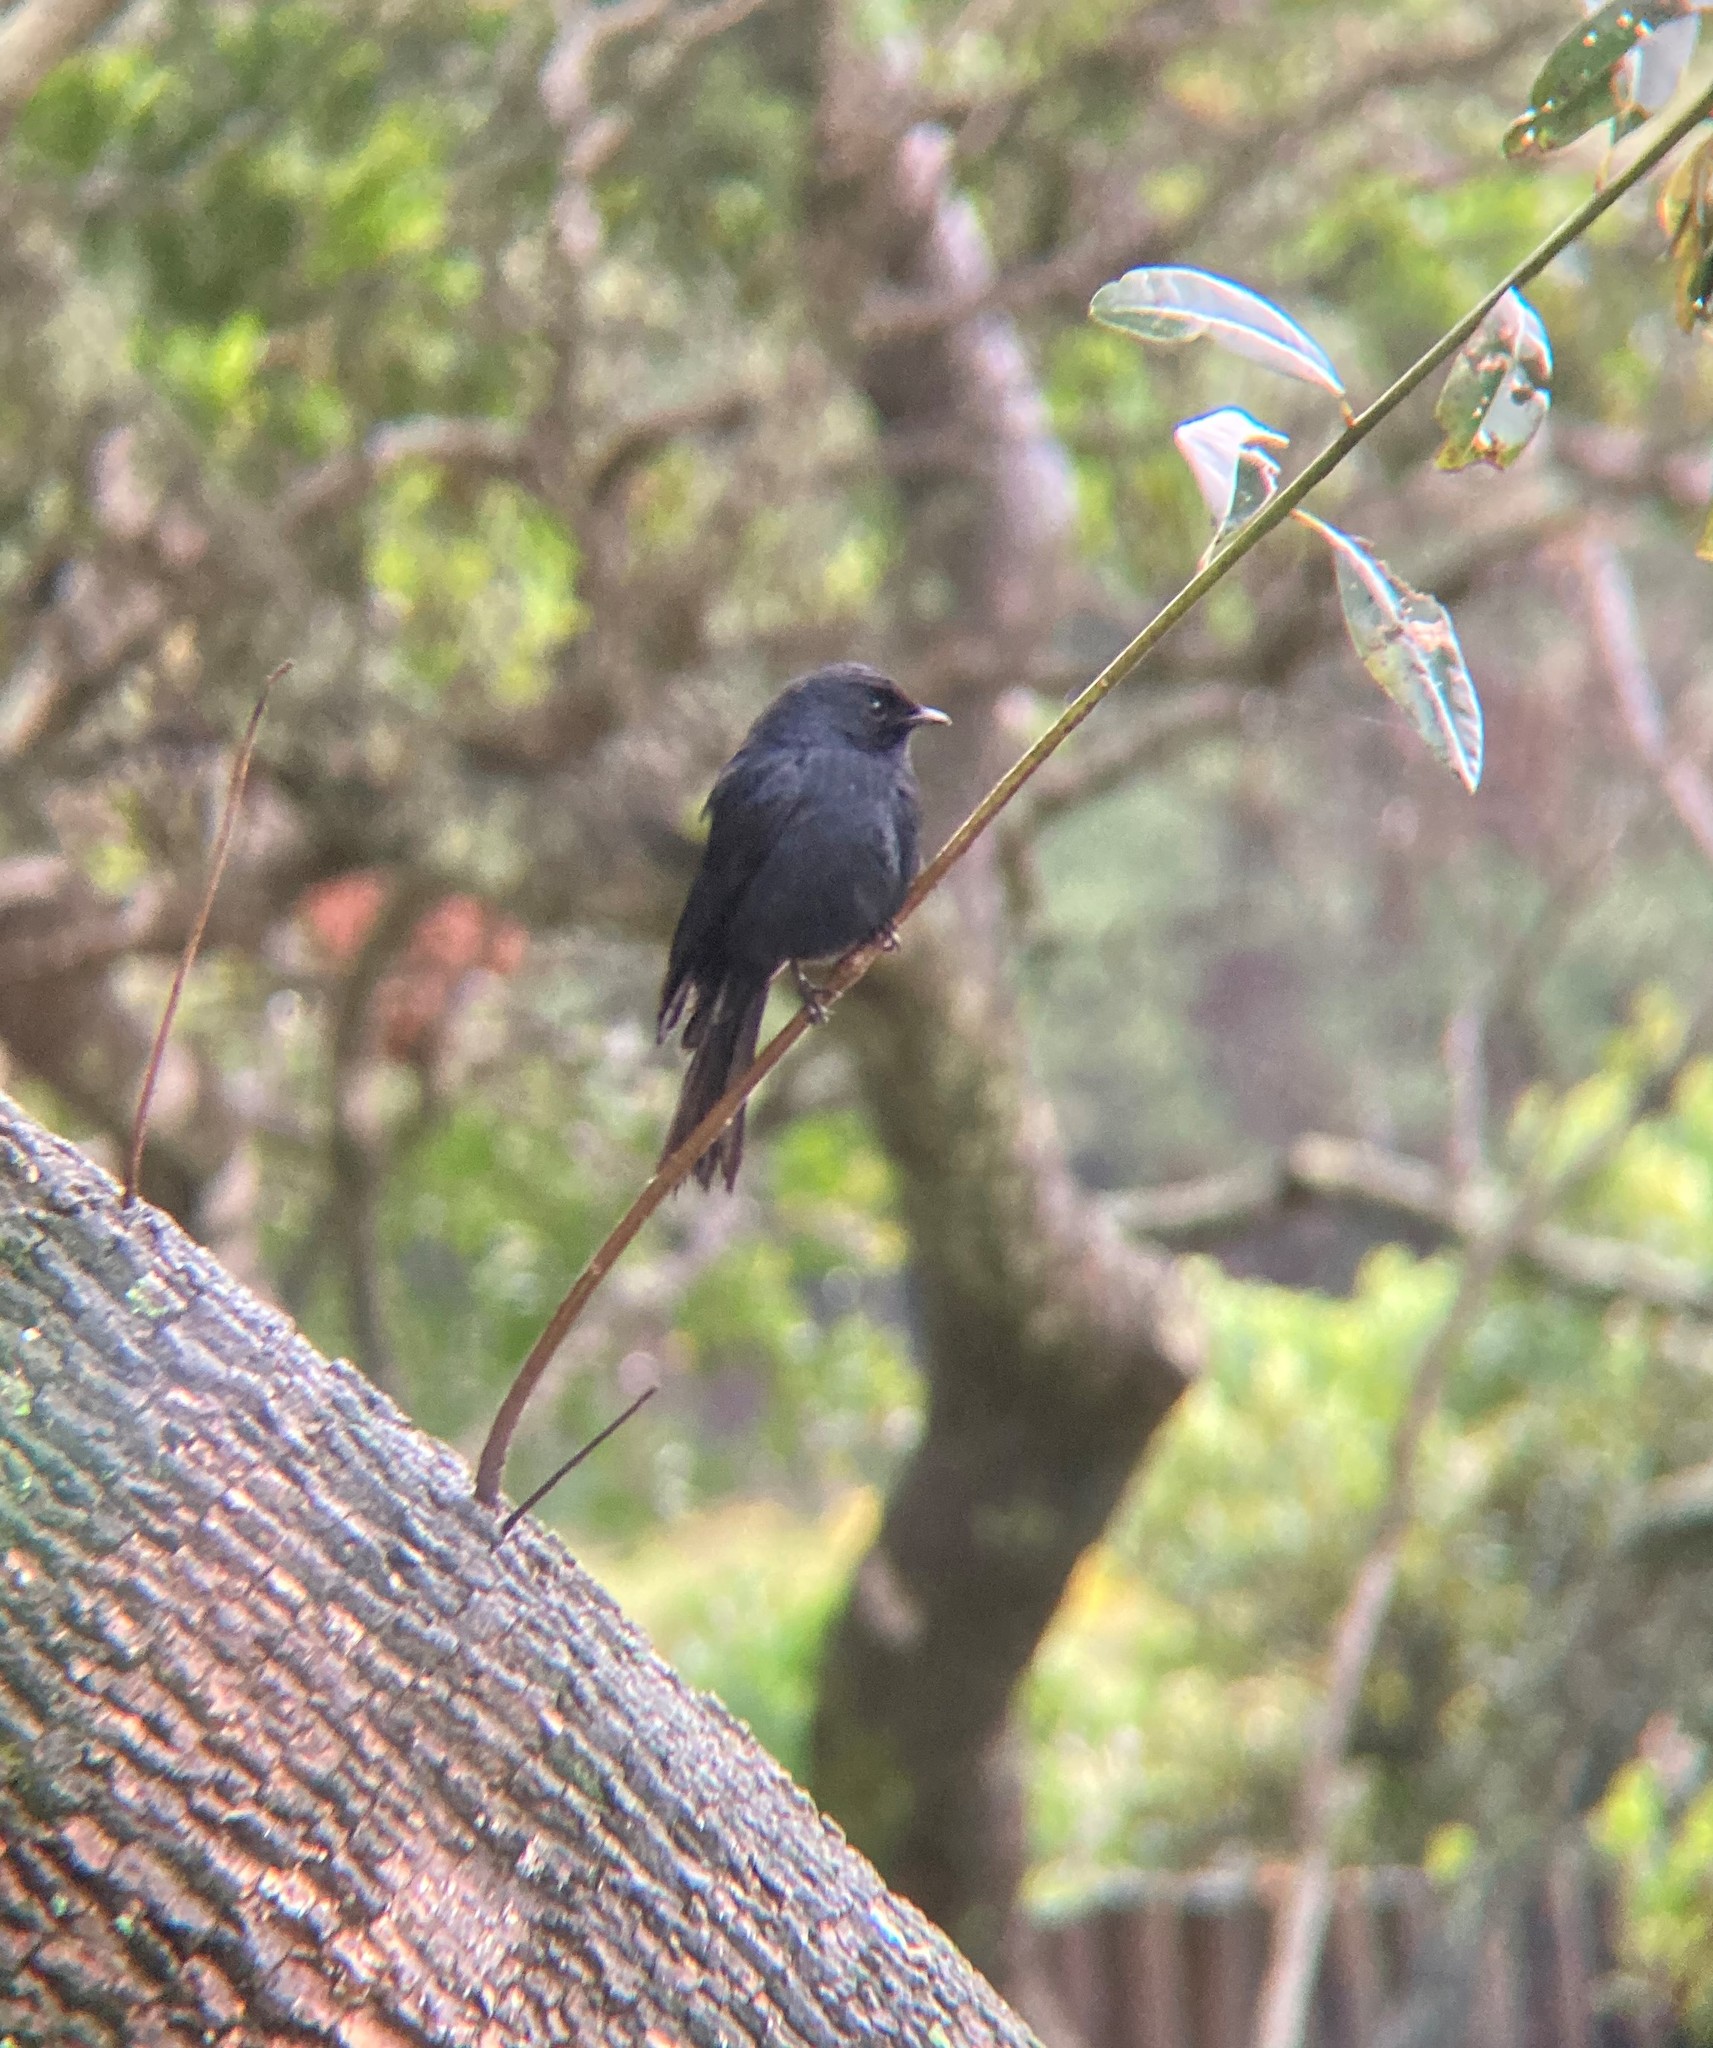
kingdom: Animalia
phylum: Chordata
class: Aves
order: Passeriformes
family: Muscicapidae
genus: Melaenornis
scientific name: Melaenornis pammelaina
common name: Southern black flycatcher
